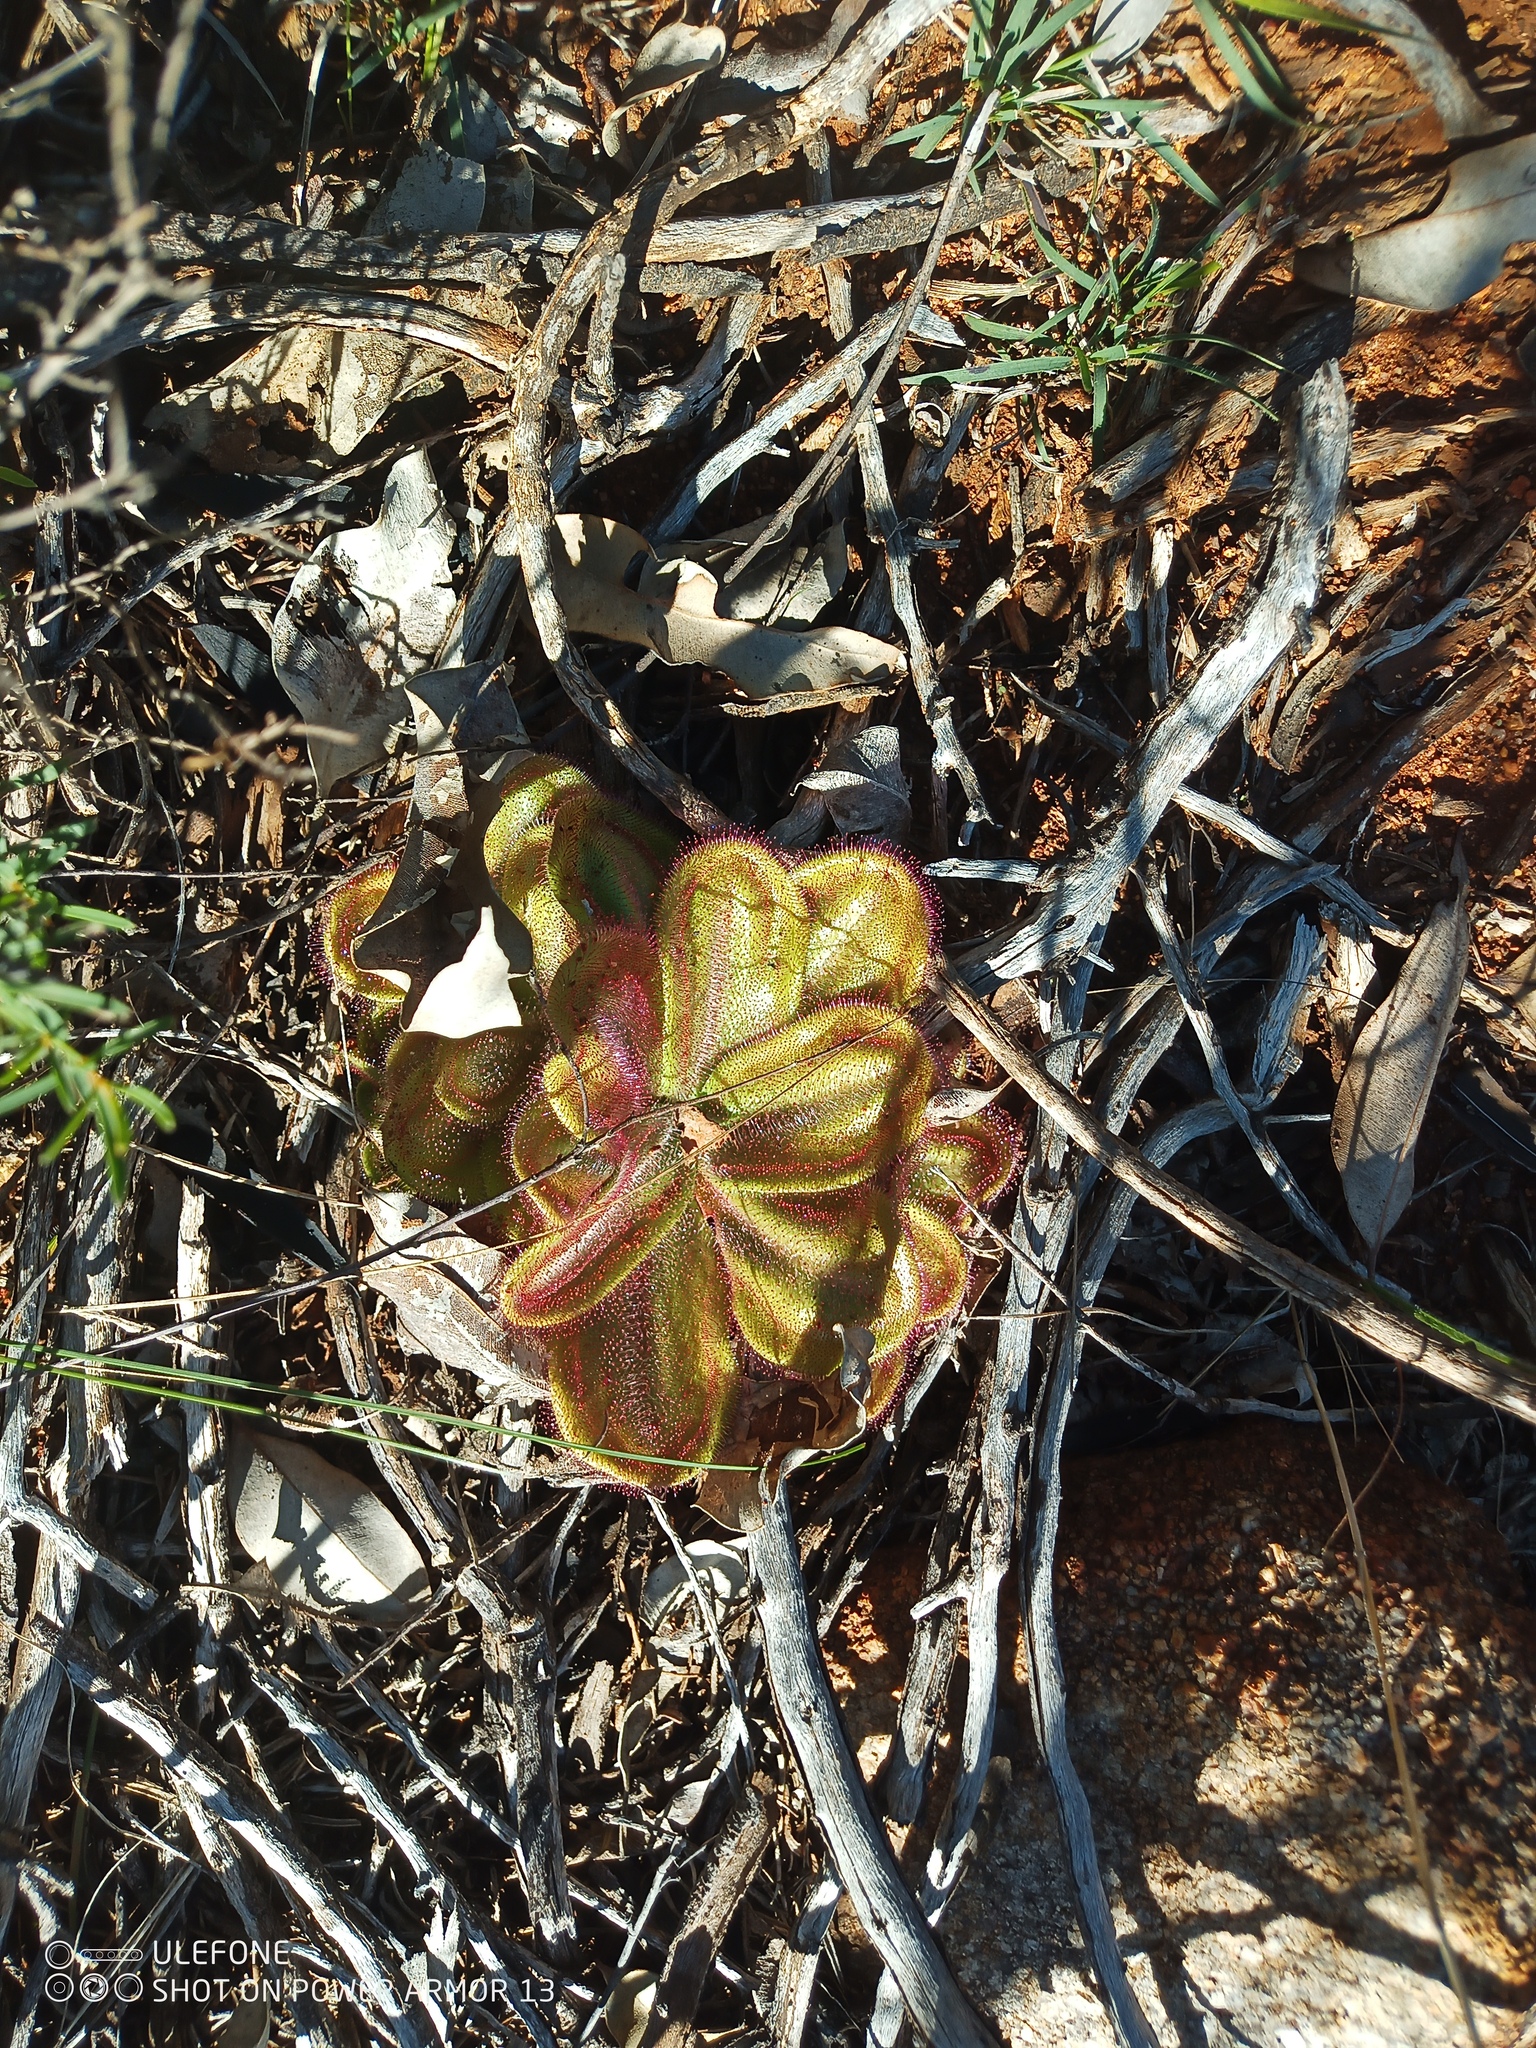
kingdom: Plantae
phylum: Tracheophyta
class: Magnoliopsida
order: Caryophyllales
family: Droseraceae
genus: Drosera
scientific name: Drosera erythrorhiza
